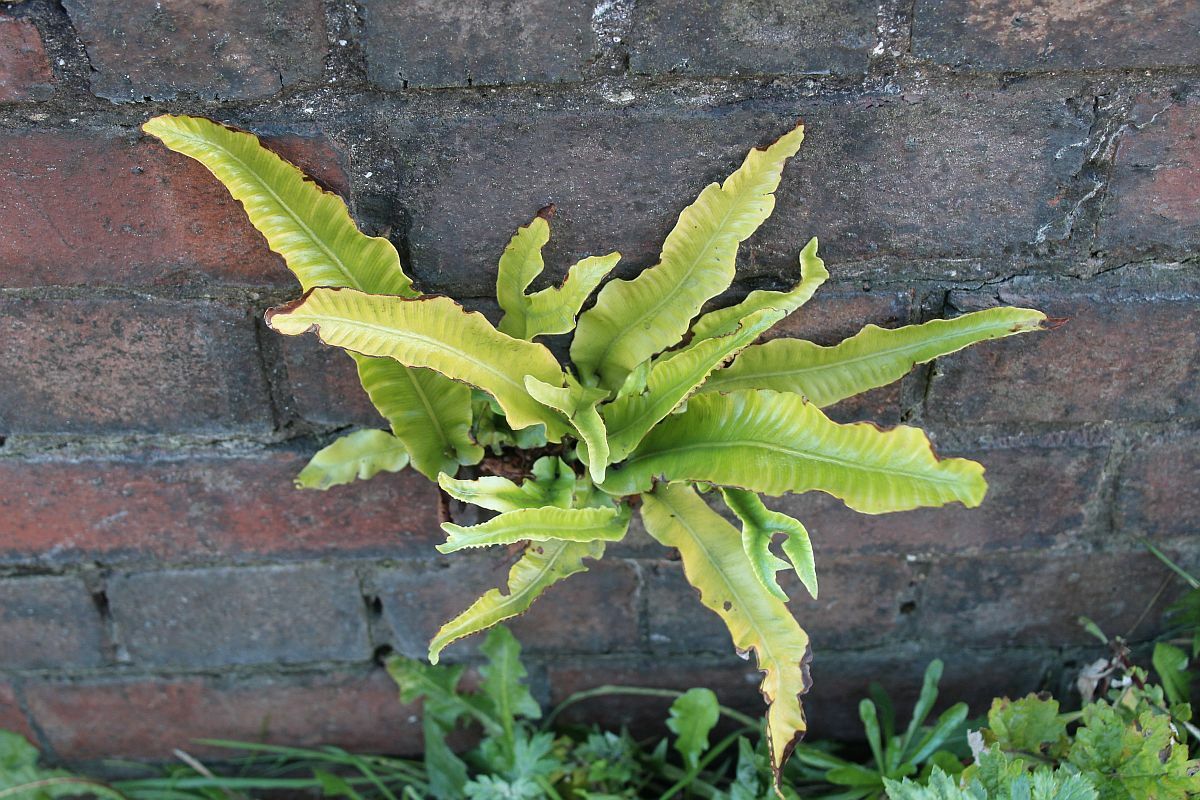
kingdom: Plantae
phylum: Tracheophyta
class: Polypodiopsida
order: Polypodiales
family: Aspleniaceae
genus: Asplenium
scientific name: Asplenium scolopendrium
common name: Hart's-tongue fern
